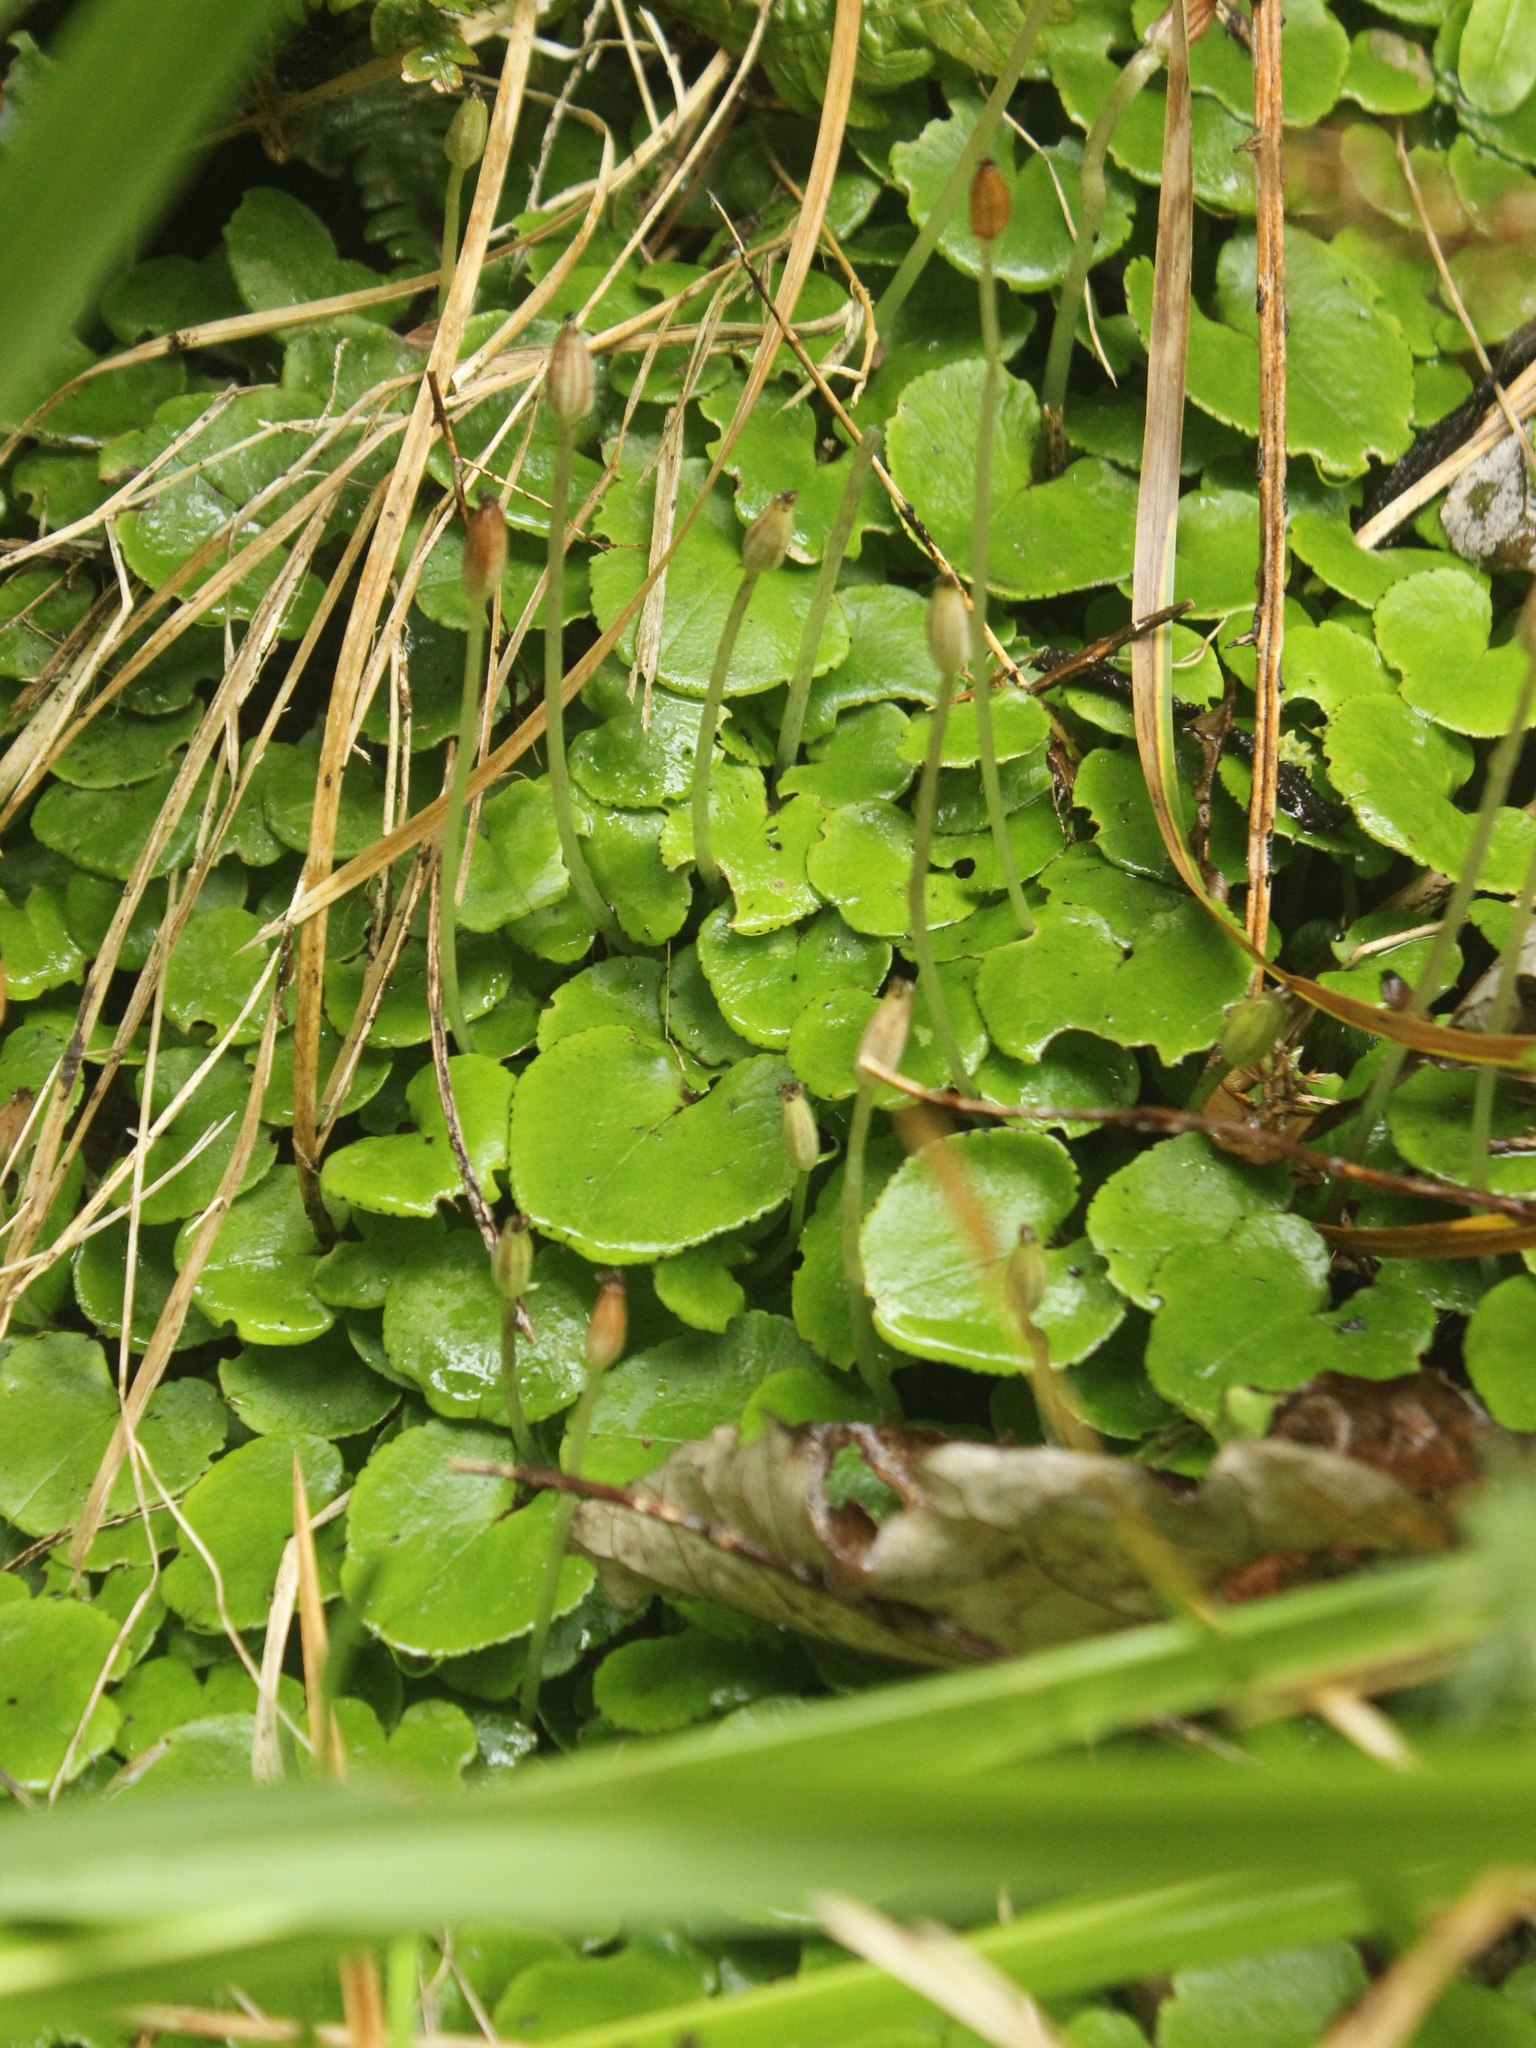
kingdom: Plantae
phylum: Tracheophyta
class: Liliopsida
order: Asparagales
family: Orchidaceae
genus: Corybas
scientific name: Corybas hatchii
